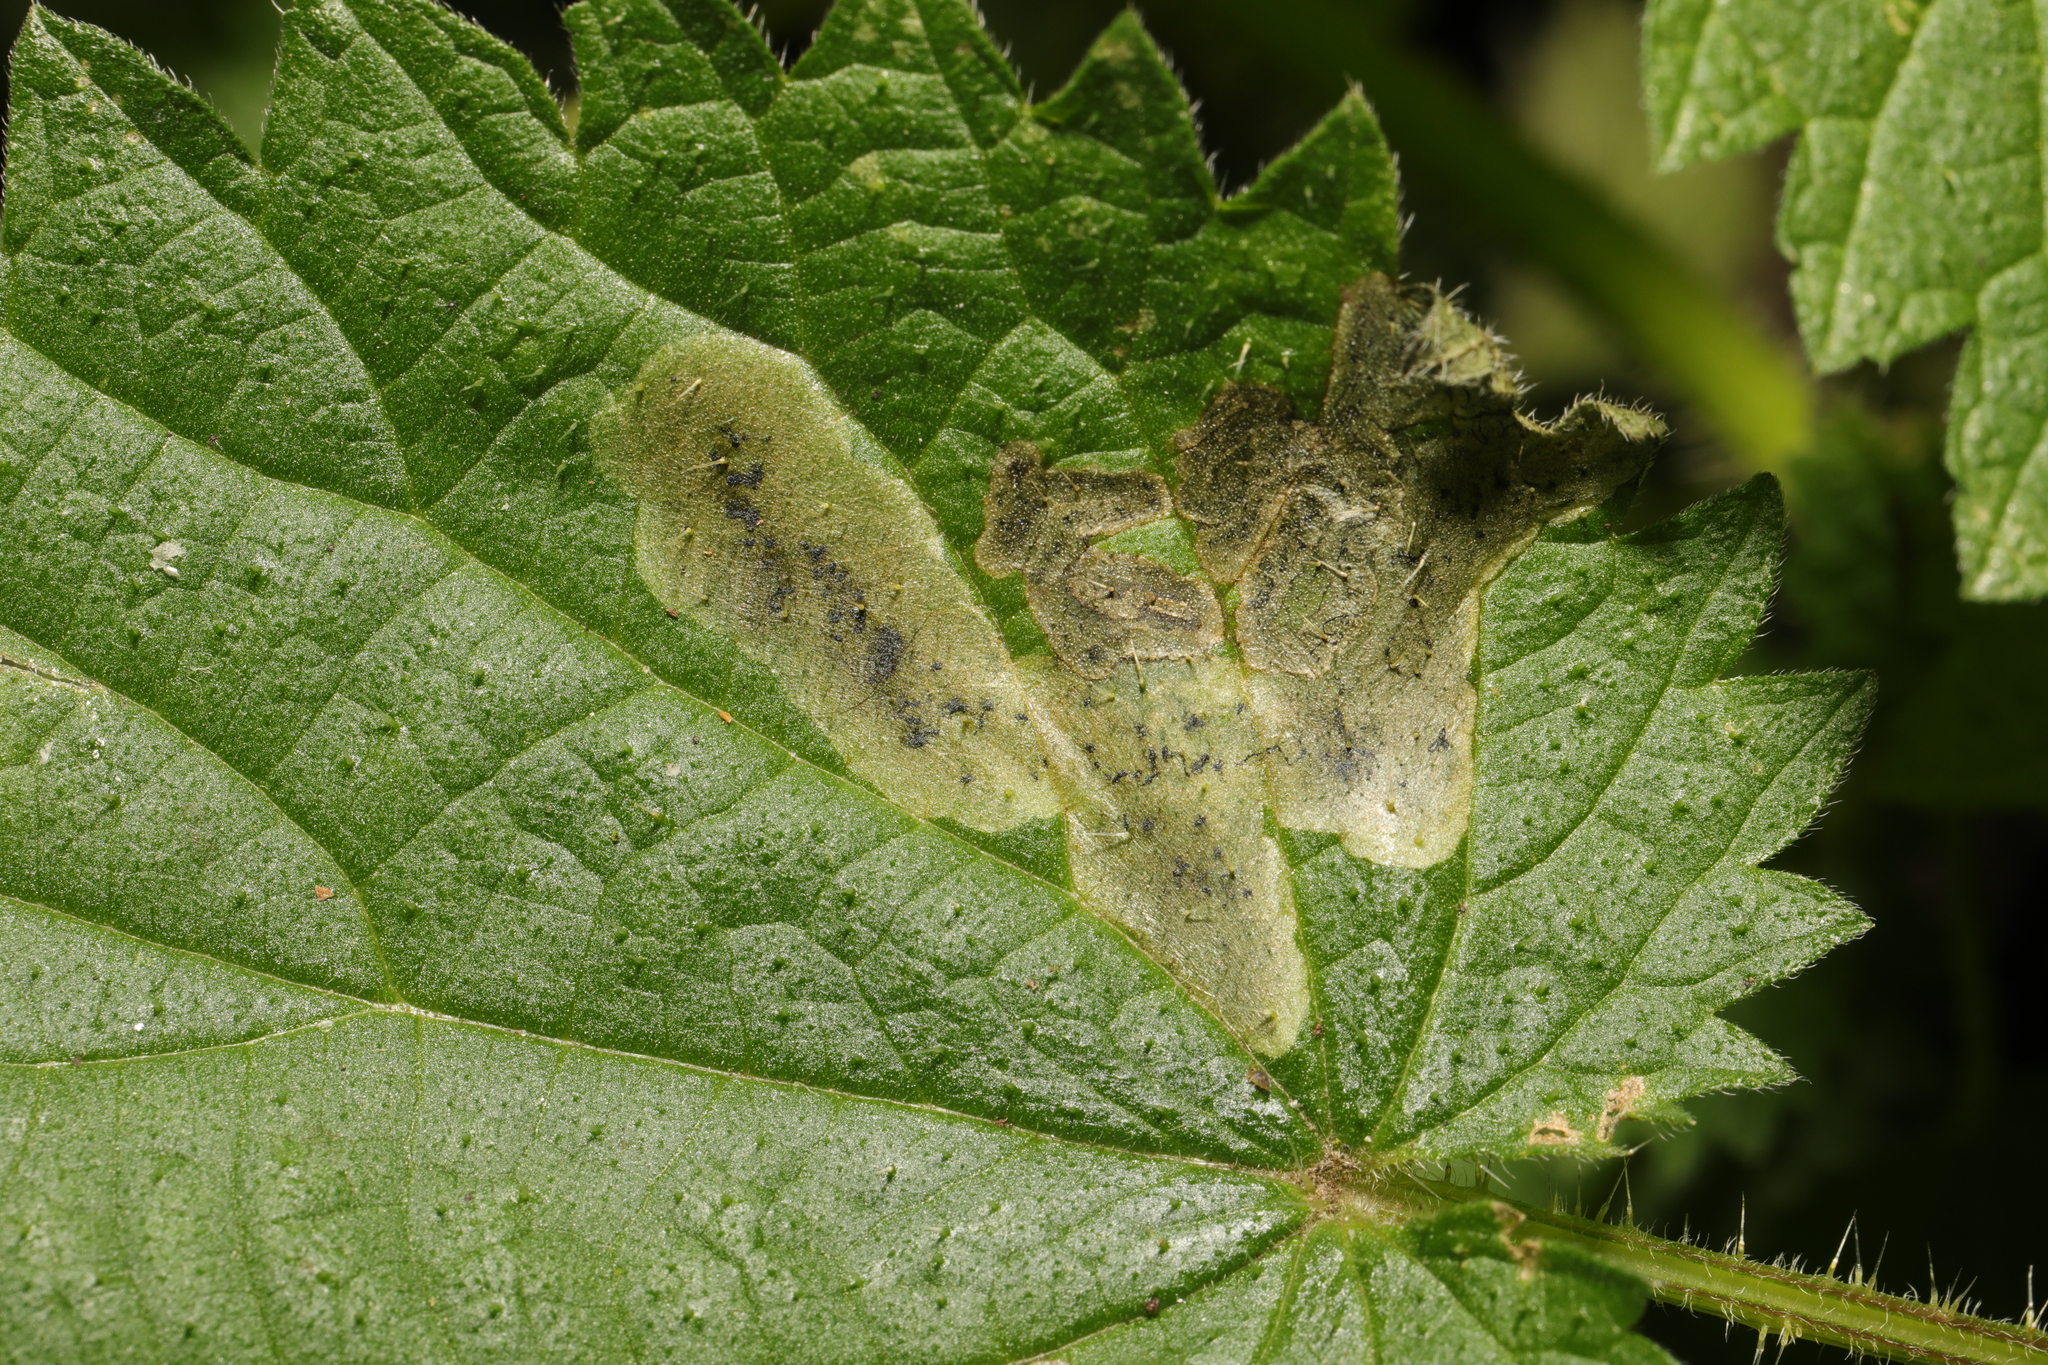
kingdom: Animalia
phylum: Arthropoda
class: Insecta
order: Diptera
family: Agromyzidae
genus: Agromyza
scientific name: Agromyza anthracina
